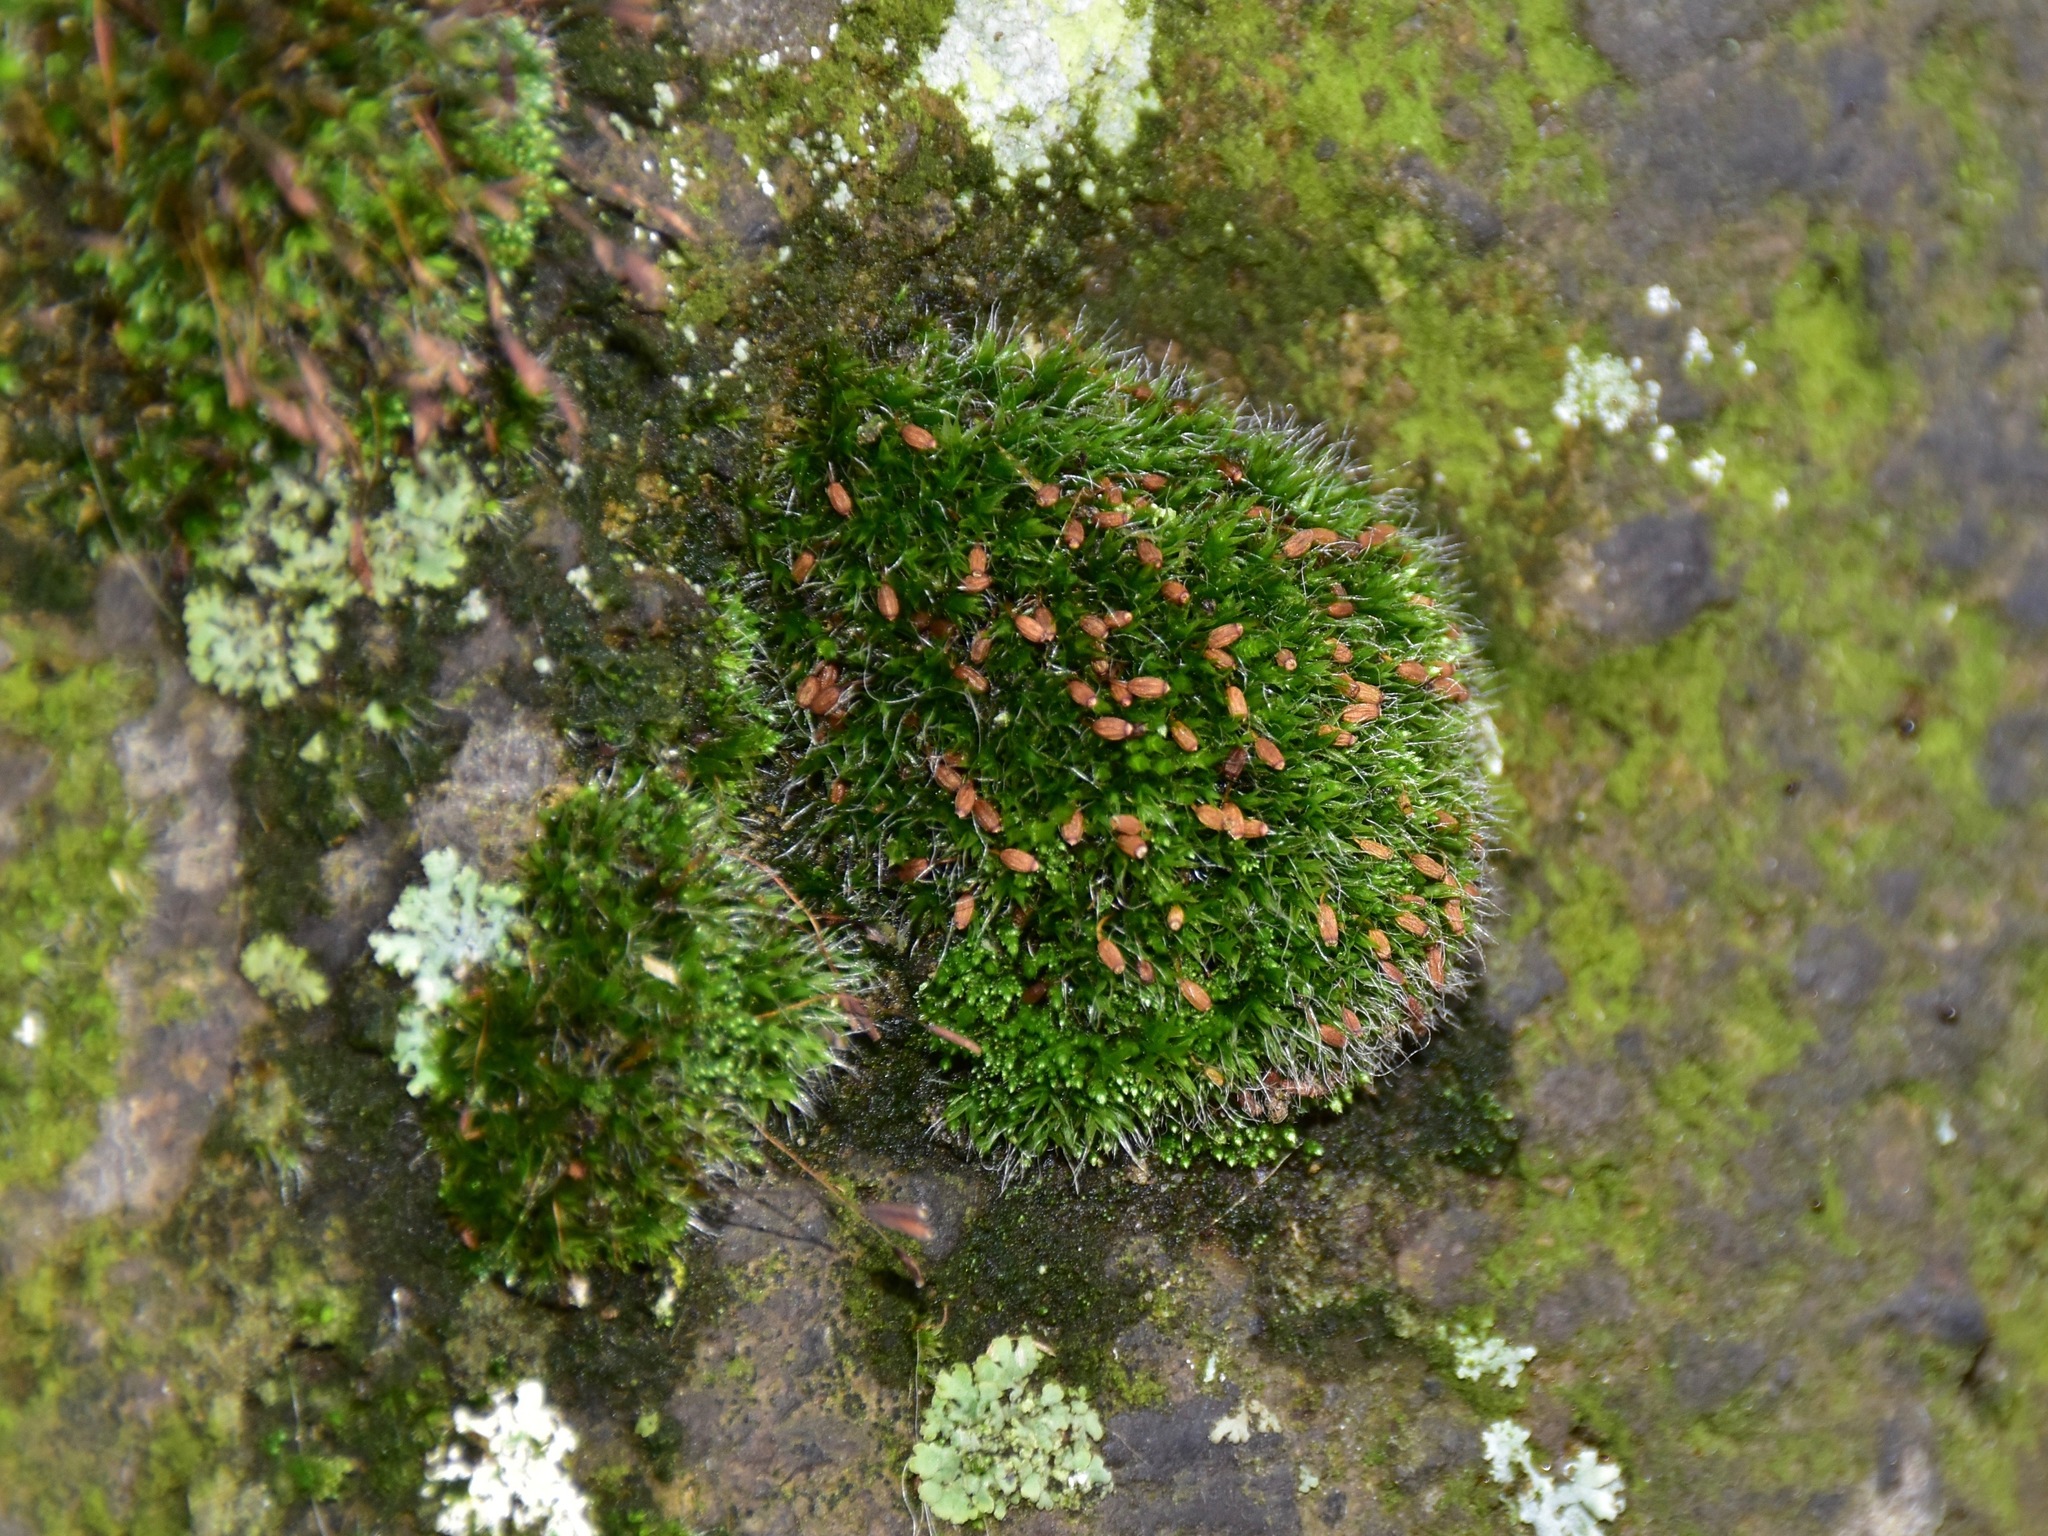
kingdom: Plantae
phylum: Bryophyta
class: Bryopsida
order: Grimmiales
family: Grimmiaceae
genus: Grimmia
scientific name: Grimmia pulvinata
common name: Grey-cushioned grimmia
